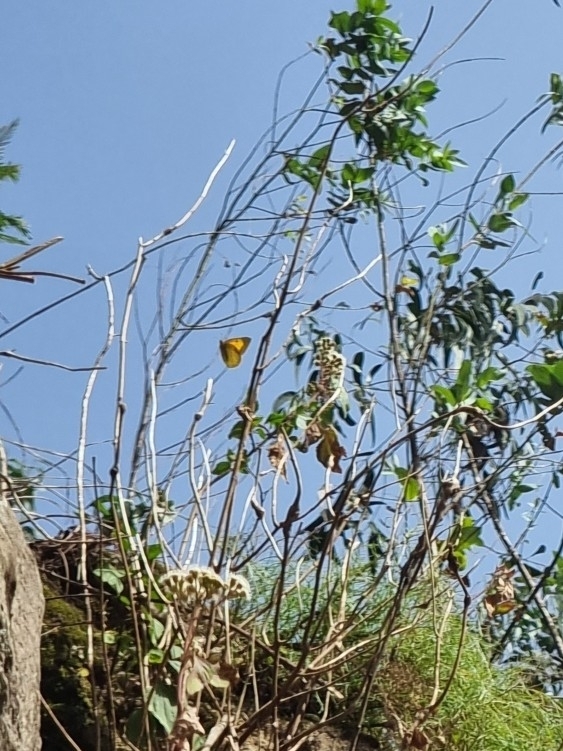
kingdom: Animalia
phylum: Arthropoda
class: Insecta
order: Lepidoptera
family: Pieridae
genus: Colias
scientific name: Colias croceus
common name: Clouded yellow
